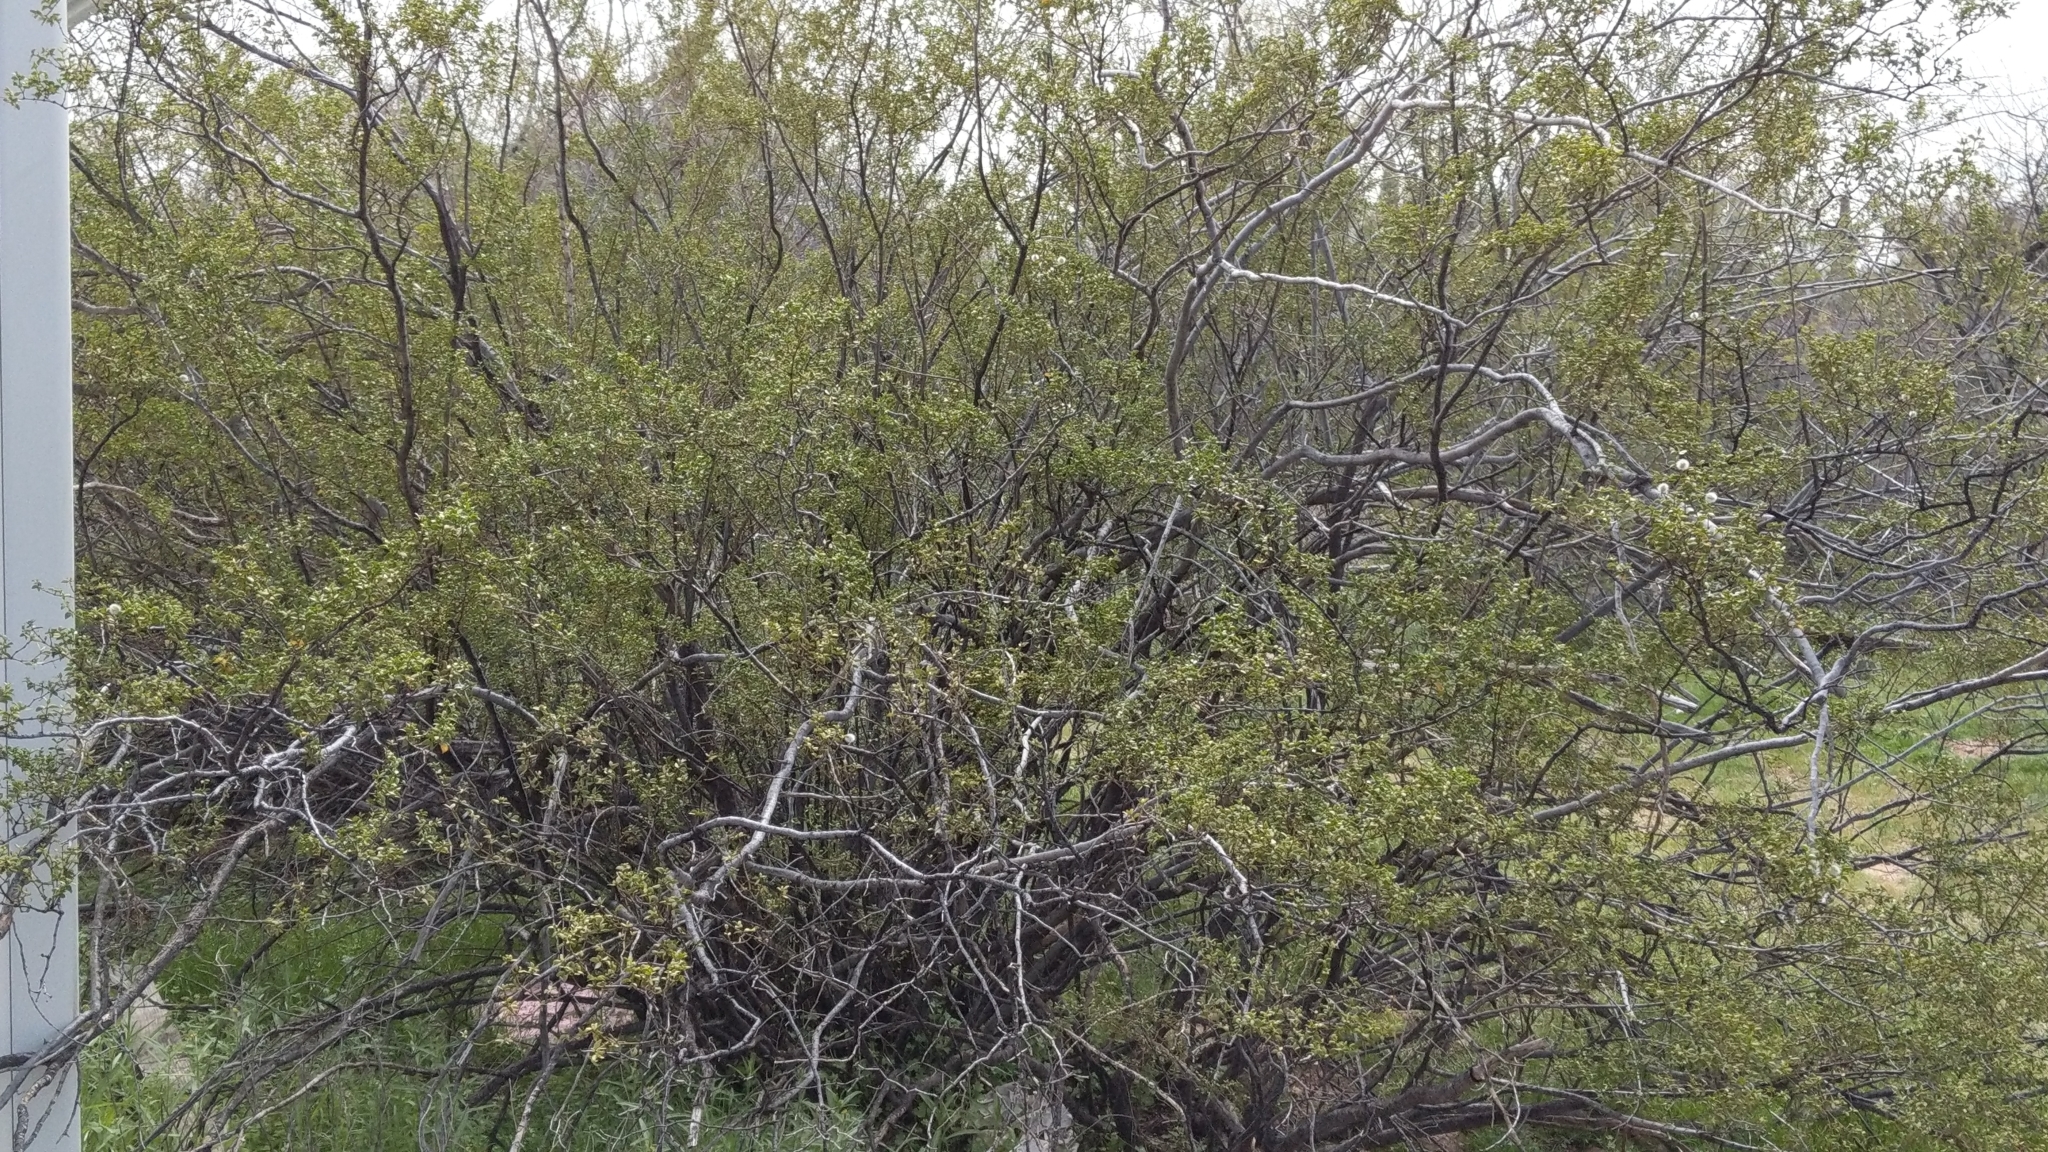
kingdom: Plantae
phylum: Tracheophyta
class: Magnoliopsida
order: Zygophyllales
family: Zygophyllaceae
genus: Larrea
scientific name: Larrea tridentata
